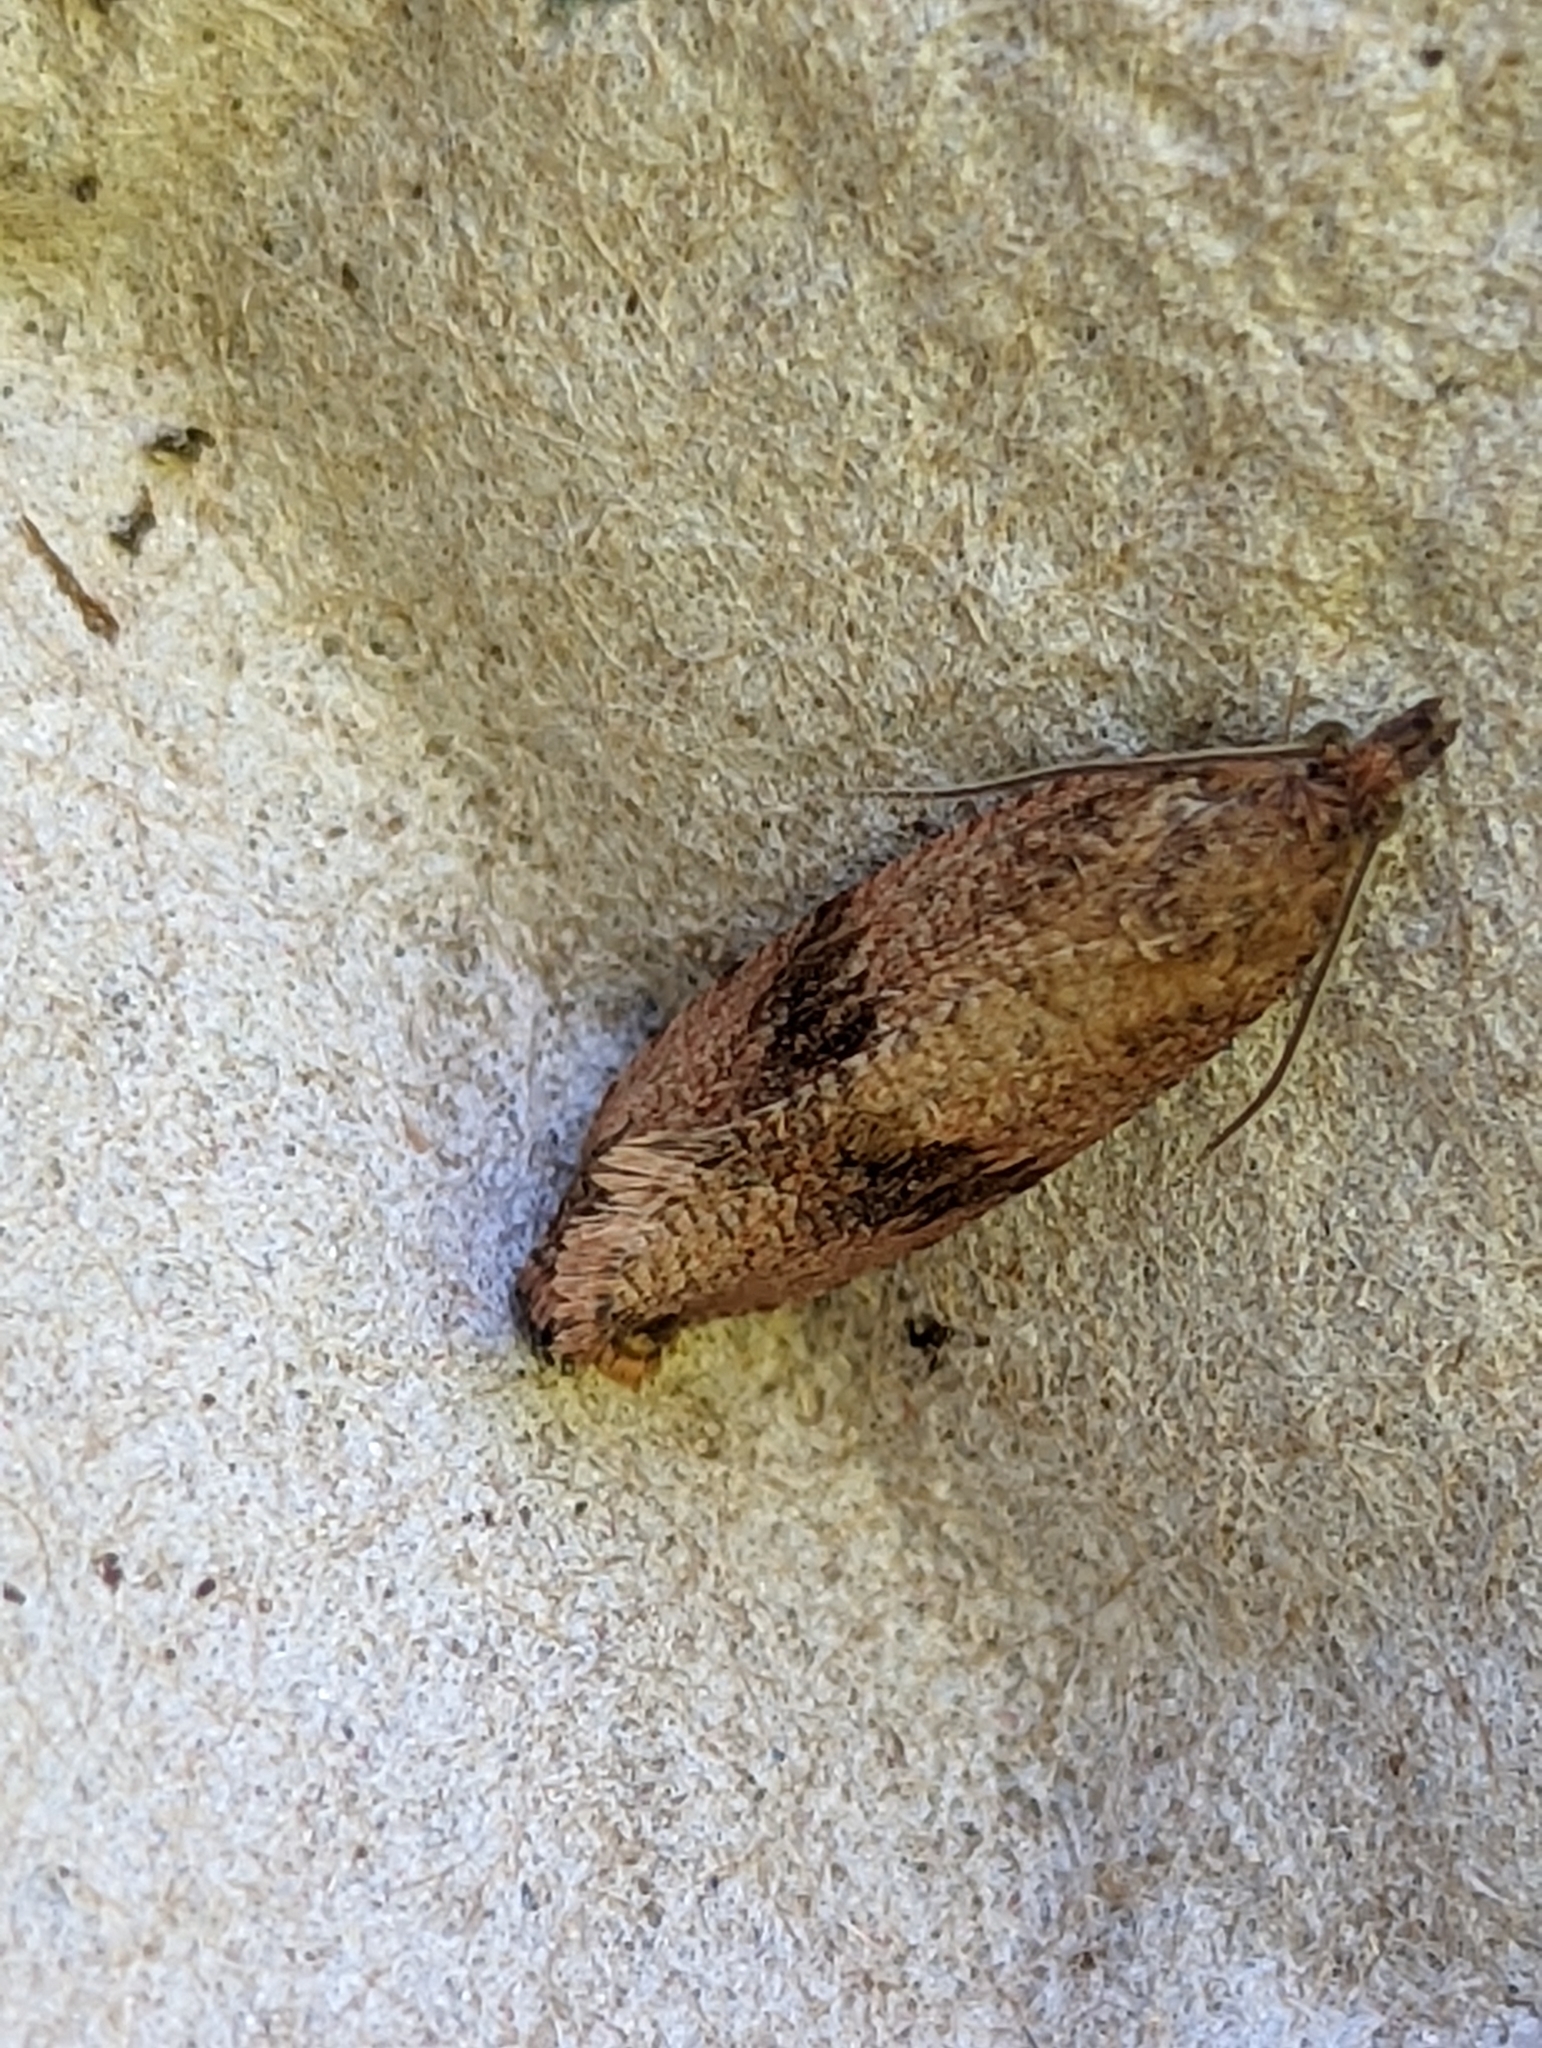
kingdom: Animalia
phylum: Arthropoda
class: Insecta
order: Lepidoptera
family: Tortricidae
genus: Celypha
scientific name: Celypha striana
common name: Barred marble
